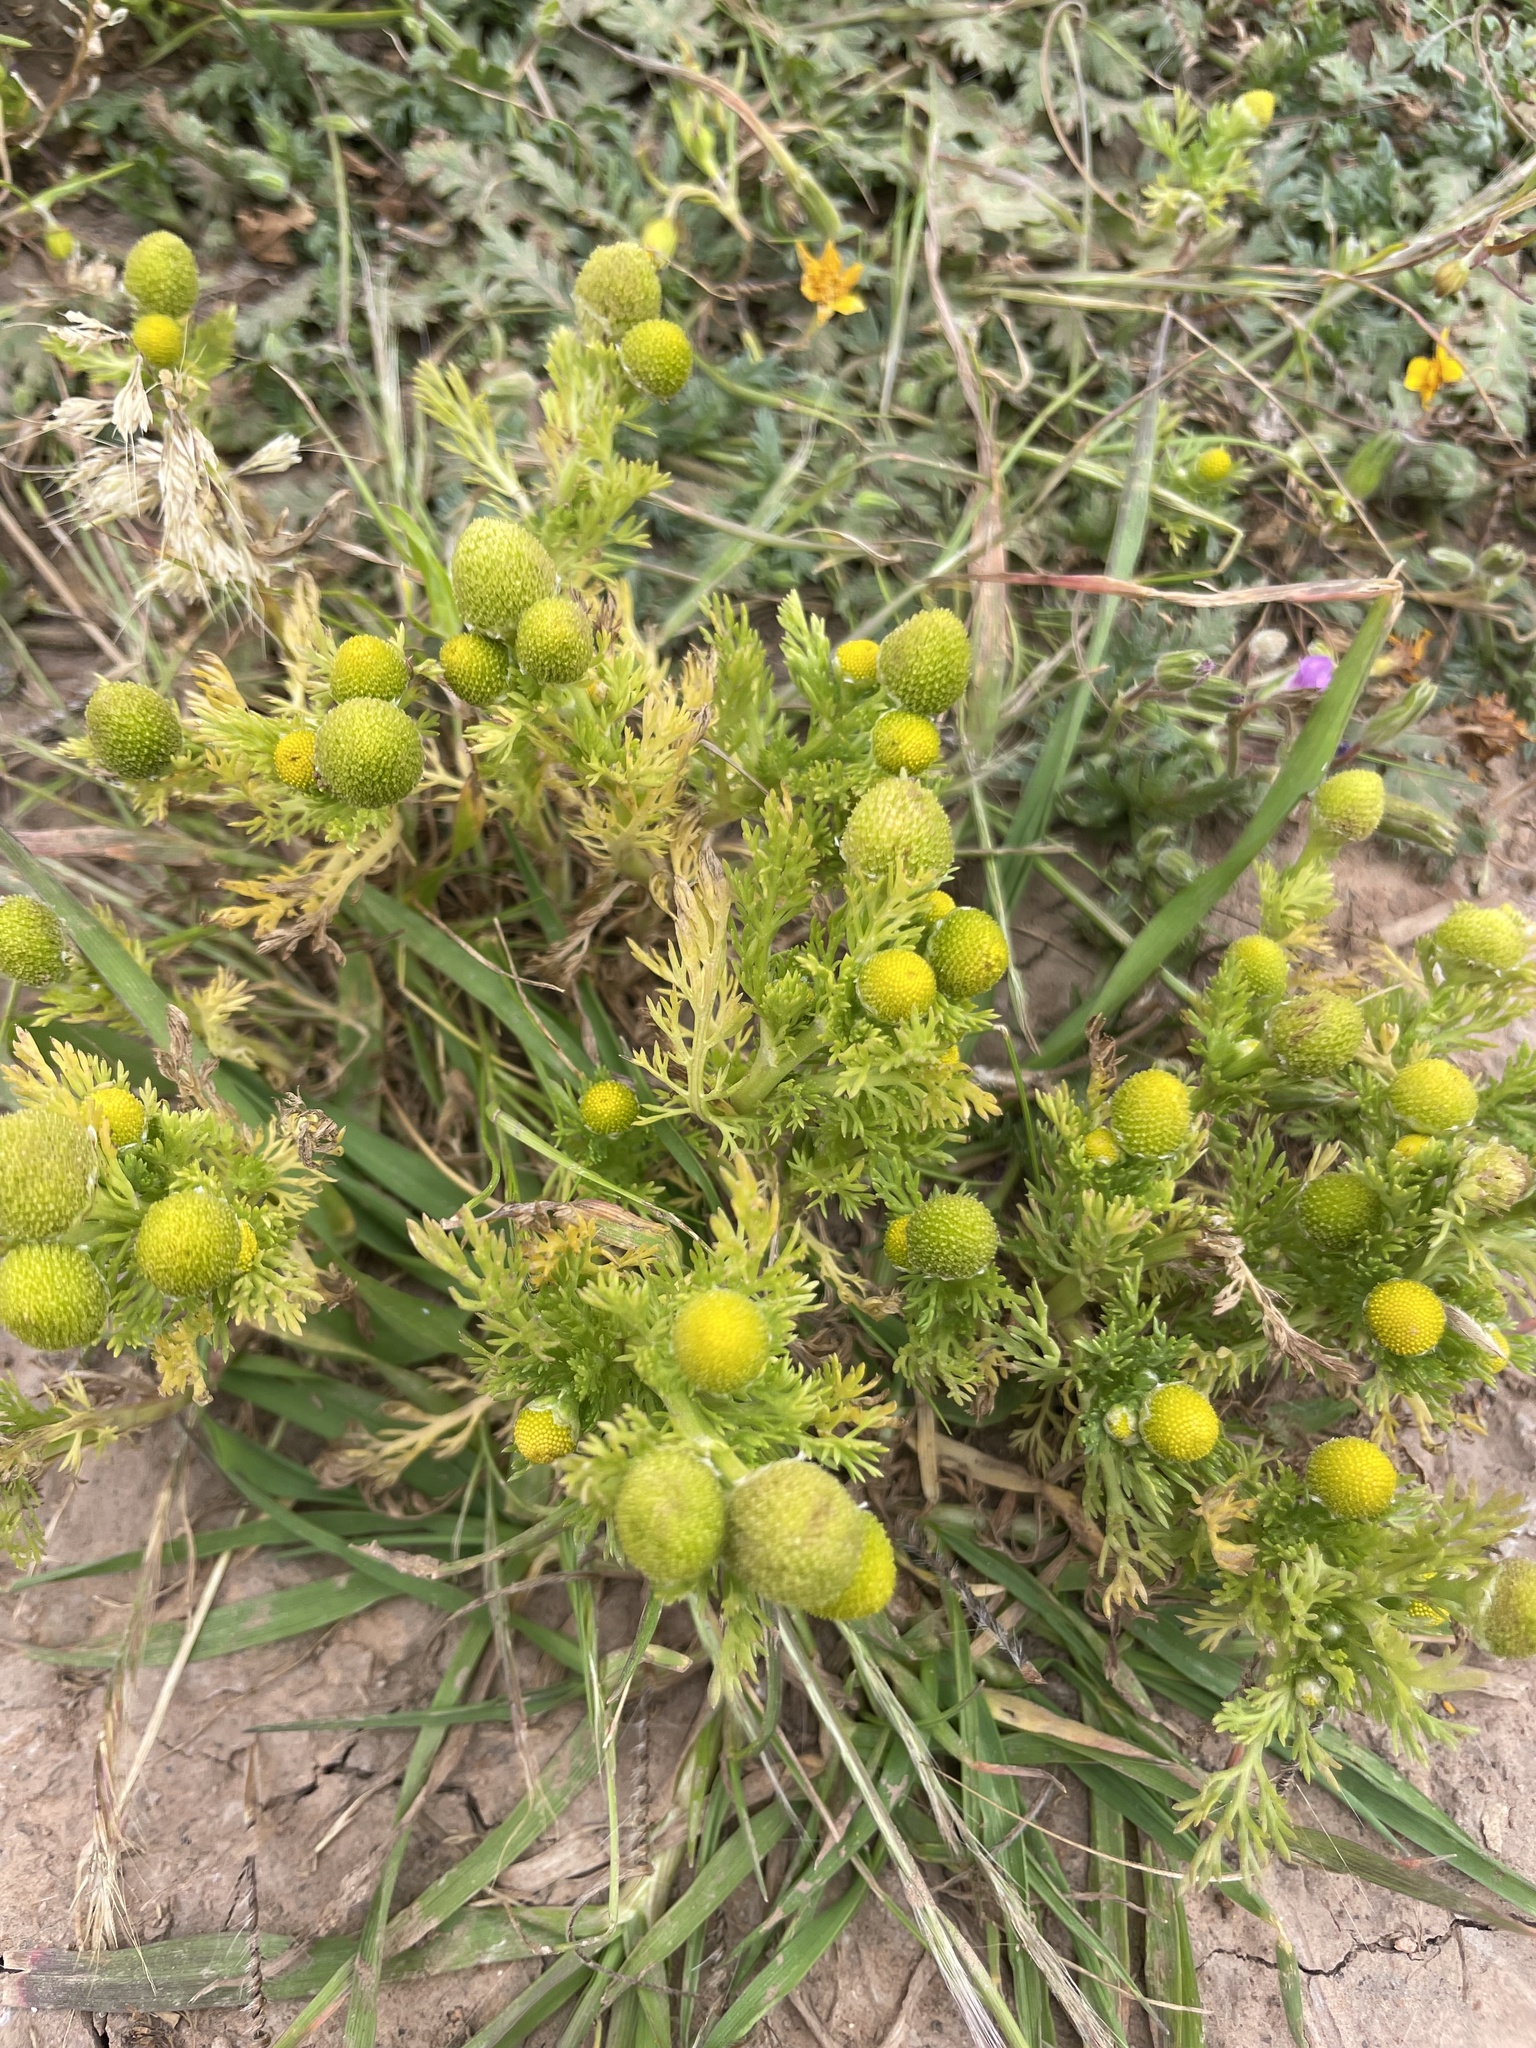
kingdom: Plantae
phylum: Tracheophyta
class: Magnoliopsida
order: Asterales
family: Asteraceae
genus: Matricaria
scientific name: Matricaria discoidea
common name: Disc mayweed
